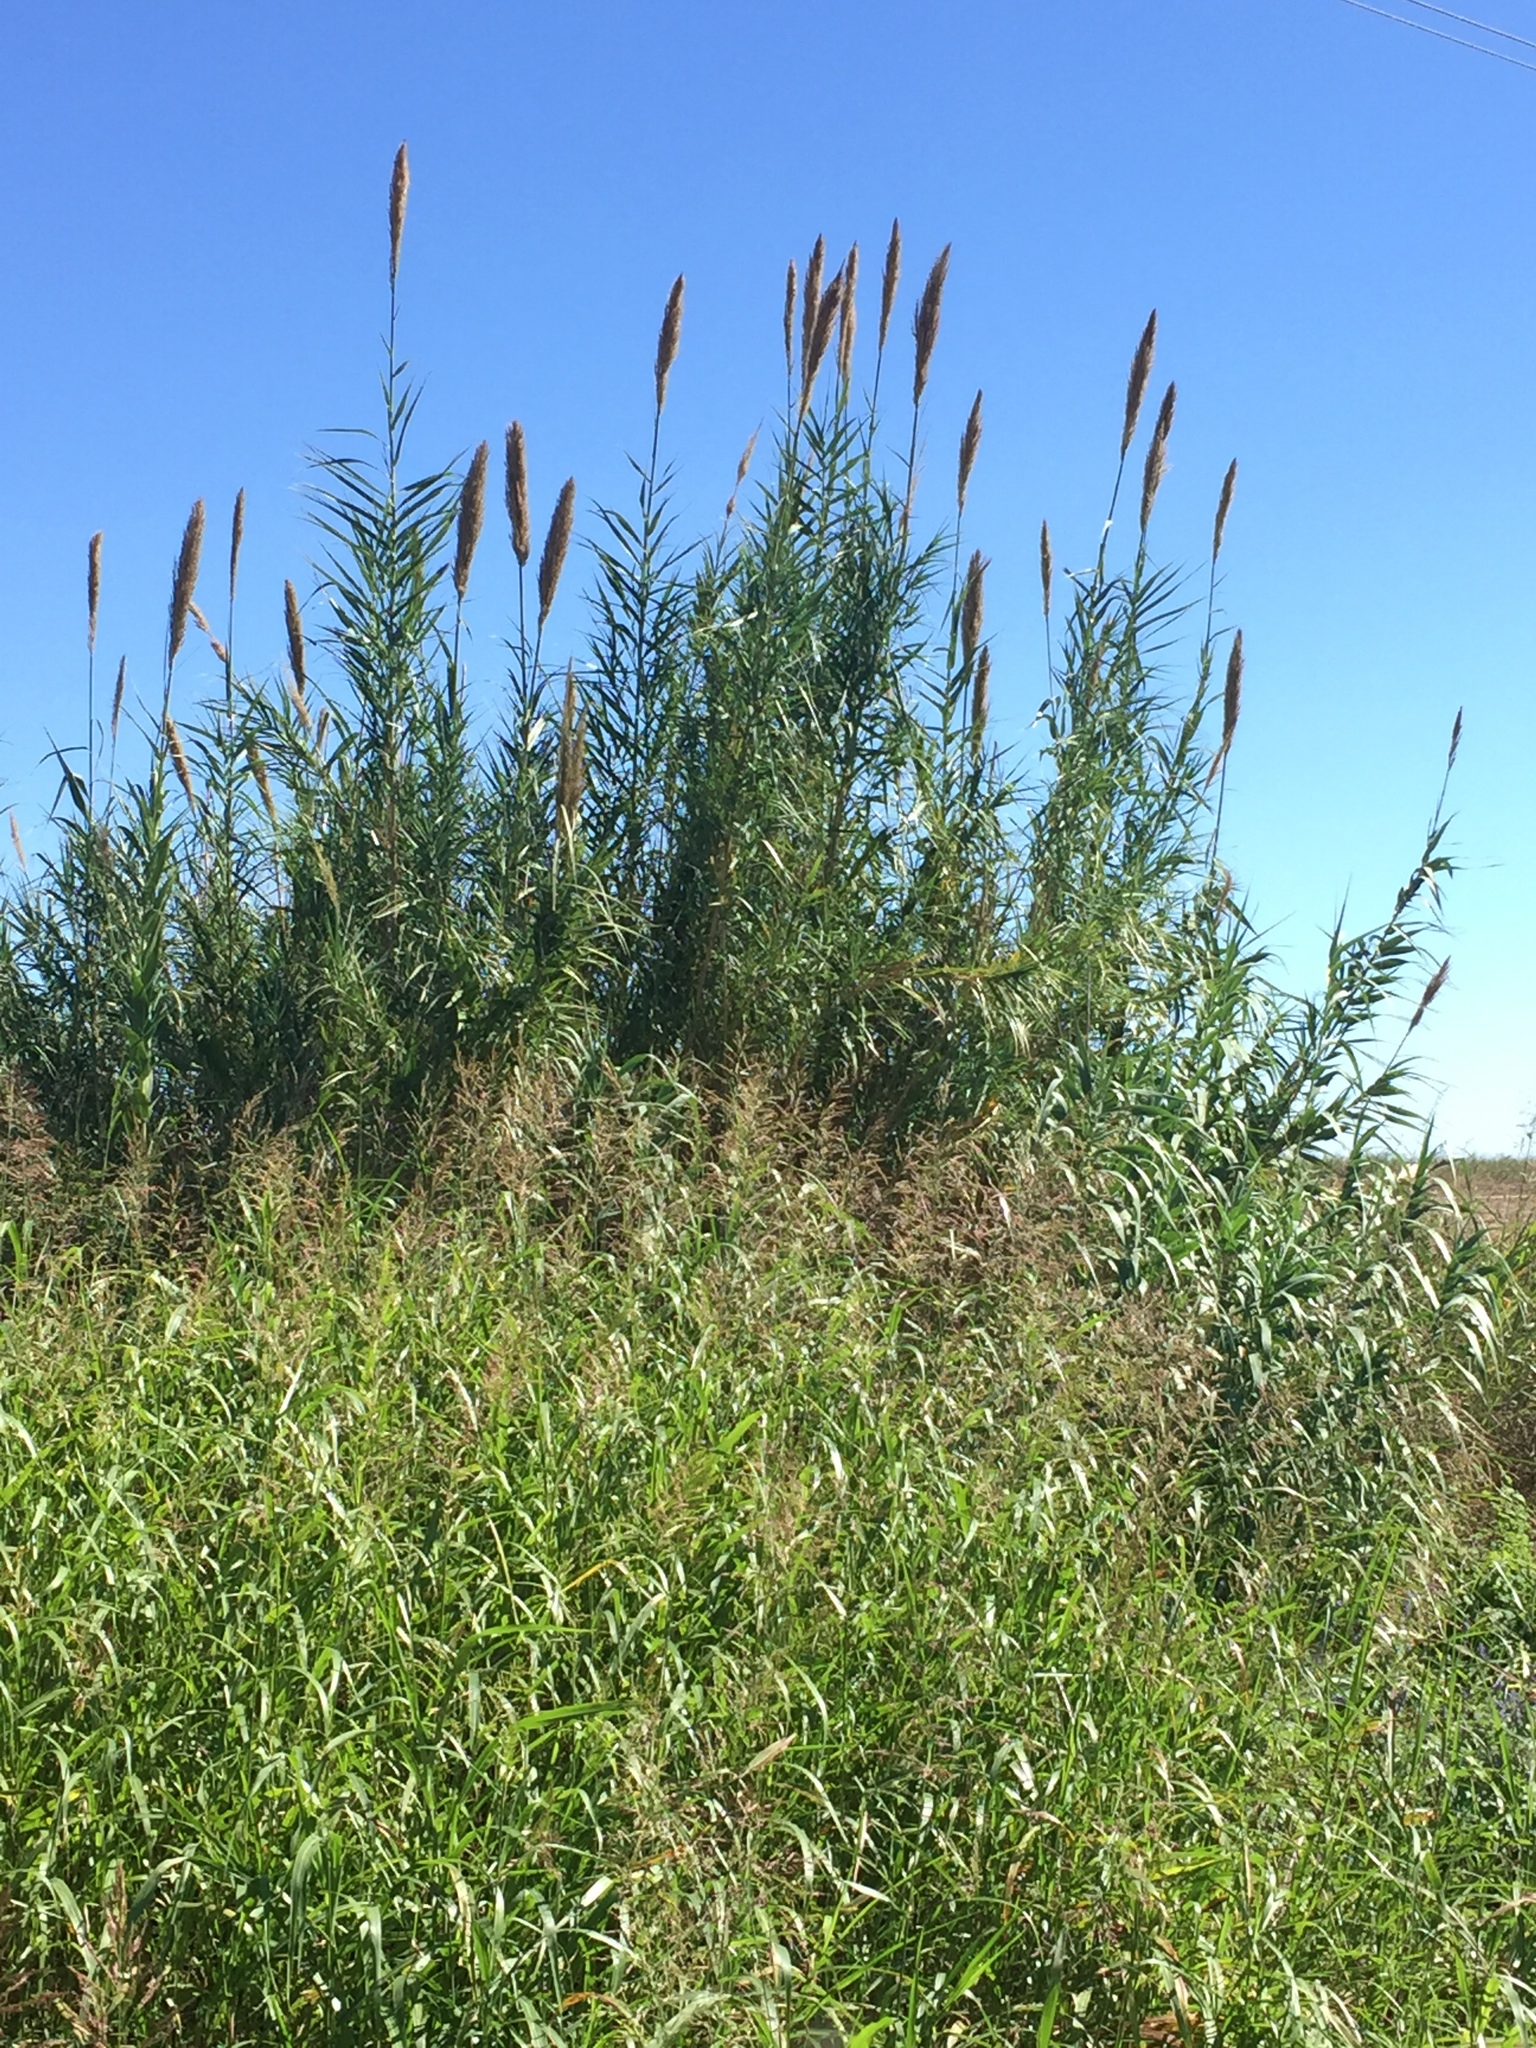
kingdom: Plantae
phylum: Tracheophyta
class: Liliopsida
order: Poales
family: Poaceae
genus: Arundo
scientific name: Arundo donax
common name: Giant reed
